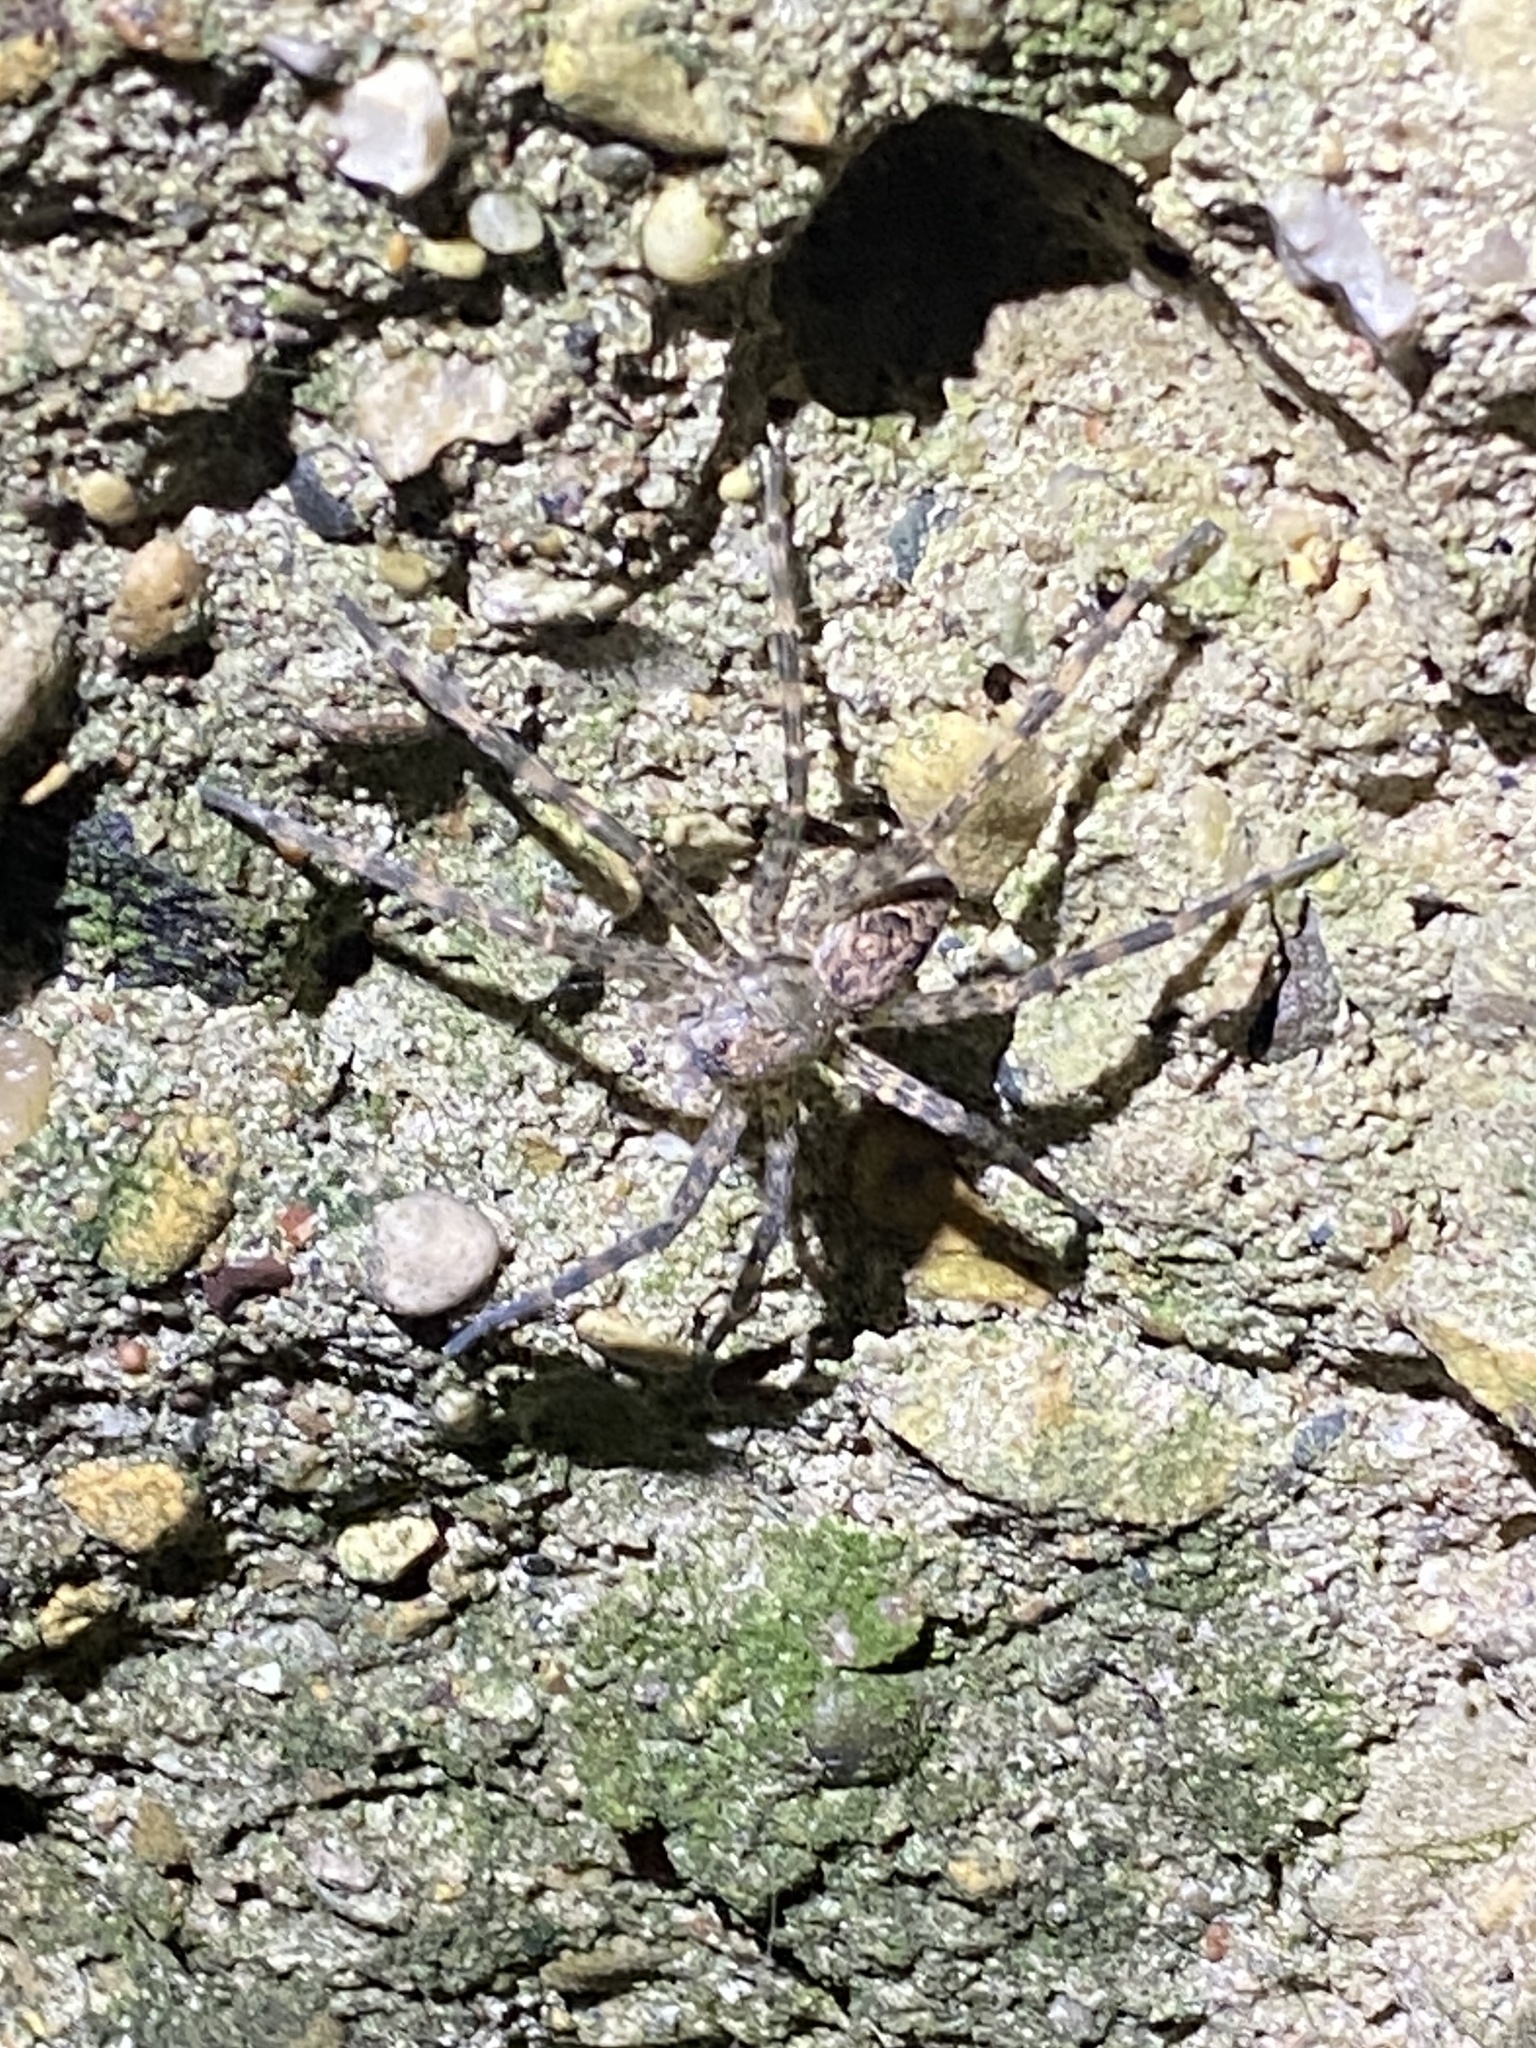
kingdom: Animalia
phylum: Arthropoda
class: Arachnida
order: Araneae
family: Pisauridae
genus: Dolomedes
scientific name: Dolomedes tenebrosus
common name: Dark fishing spider
